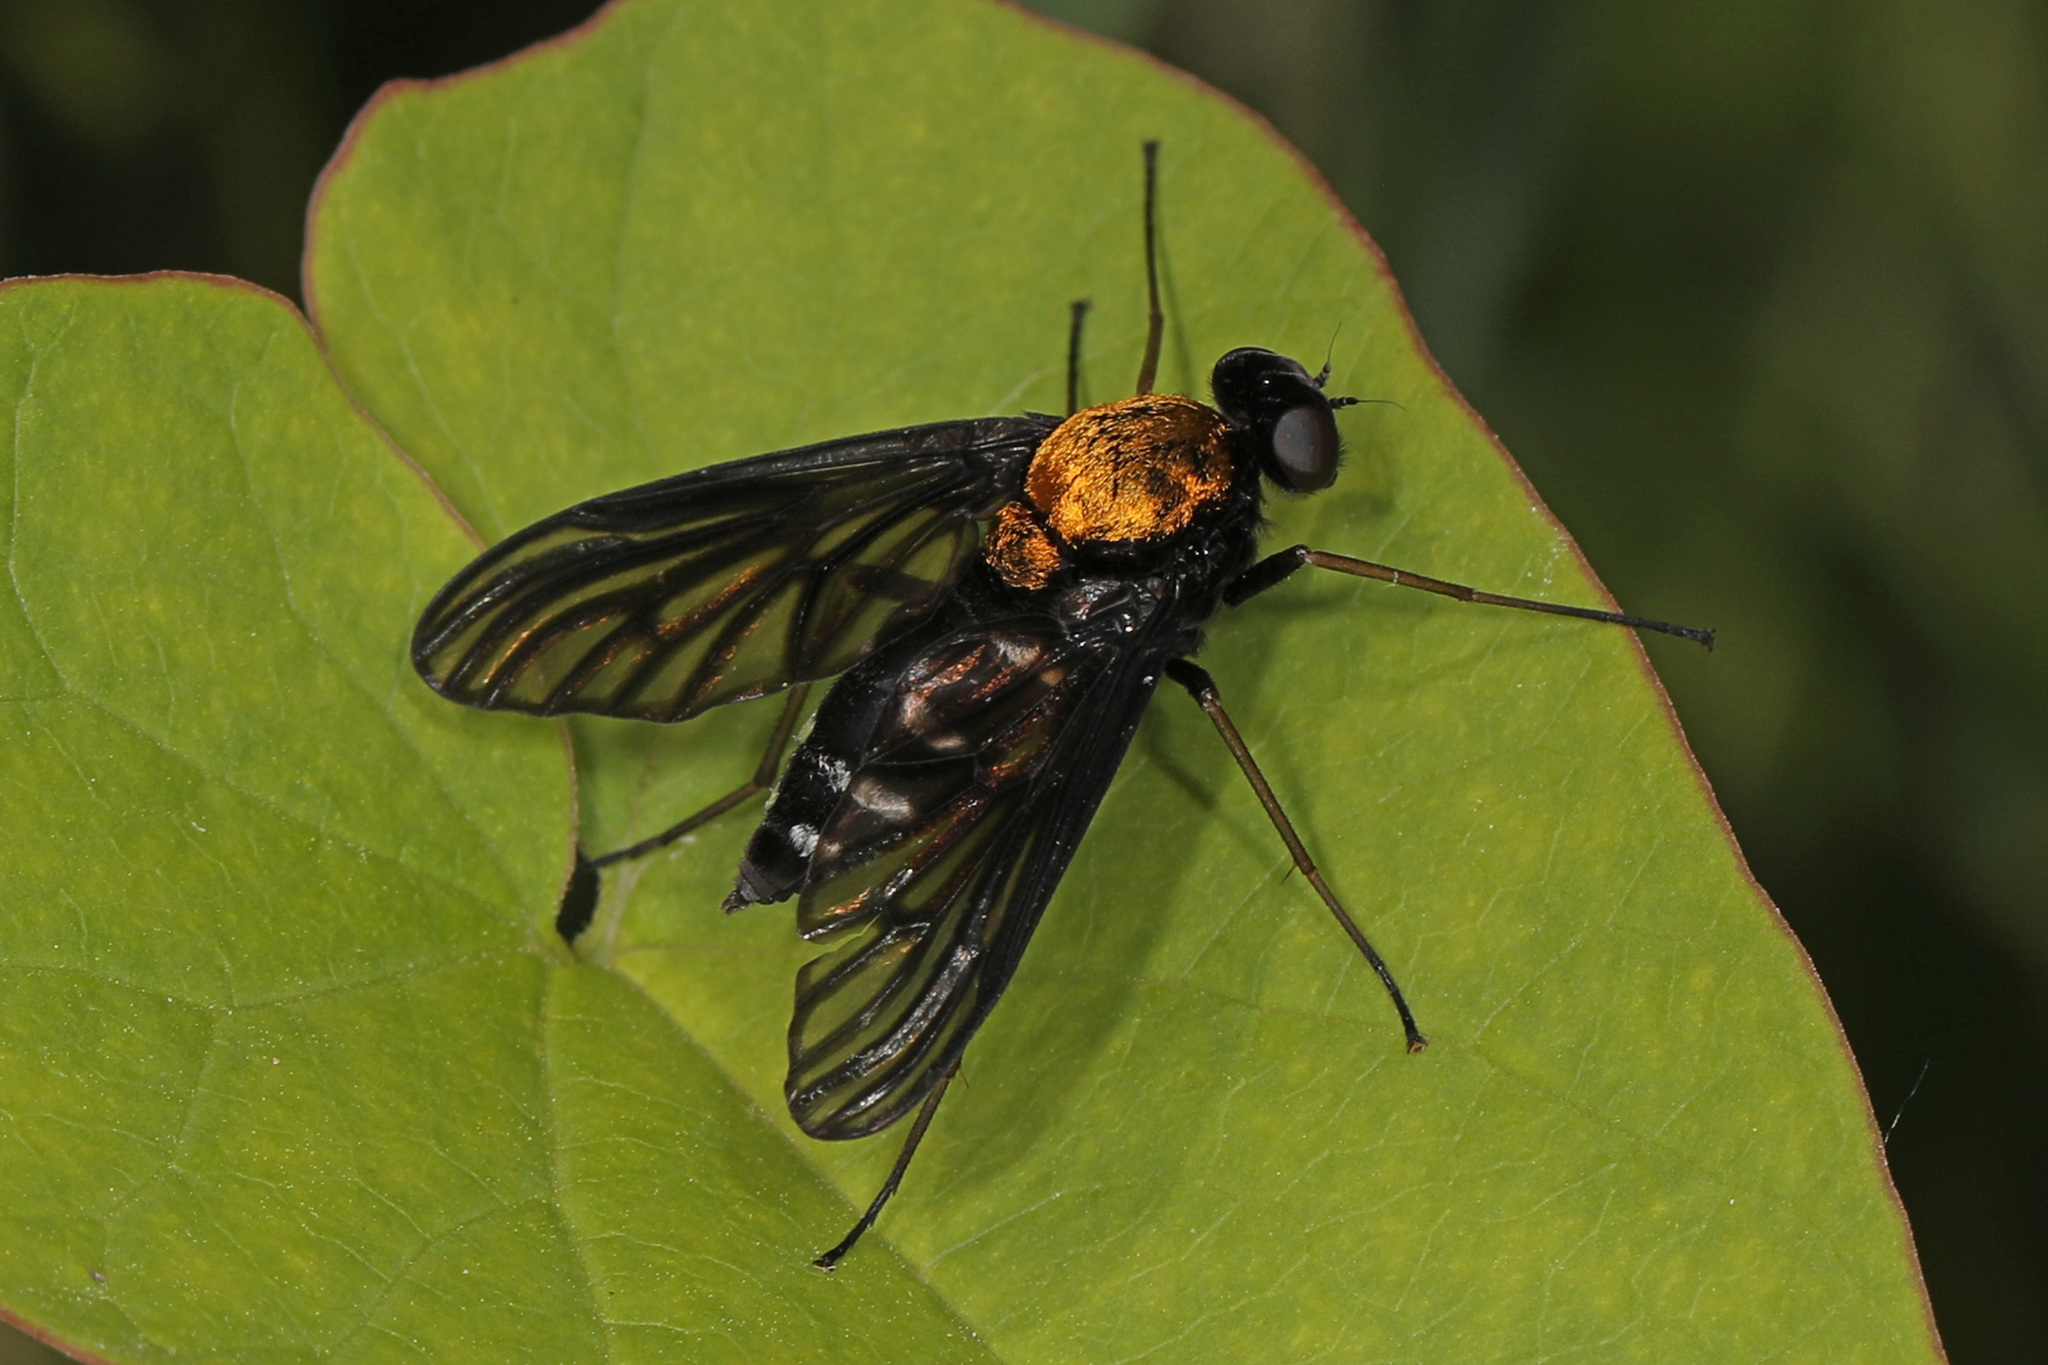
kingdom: Animalia
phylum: Arthropoda
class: Insecta
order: Diptera
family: Rhagionidae
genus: Chrysopilus
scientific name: Chrysopilus thoracicus
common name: Golden-backed snipe fly
